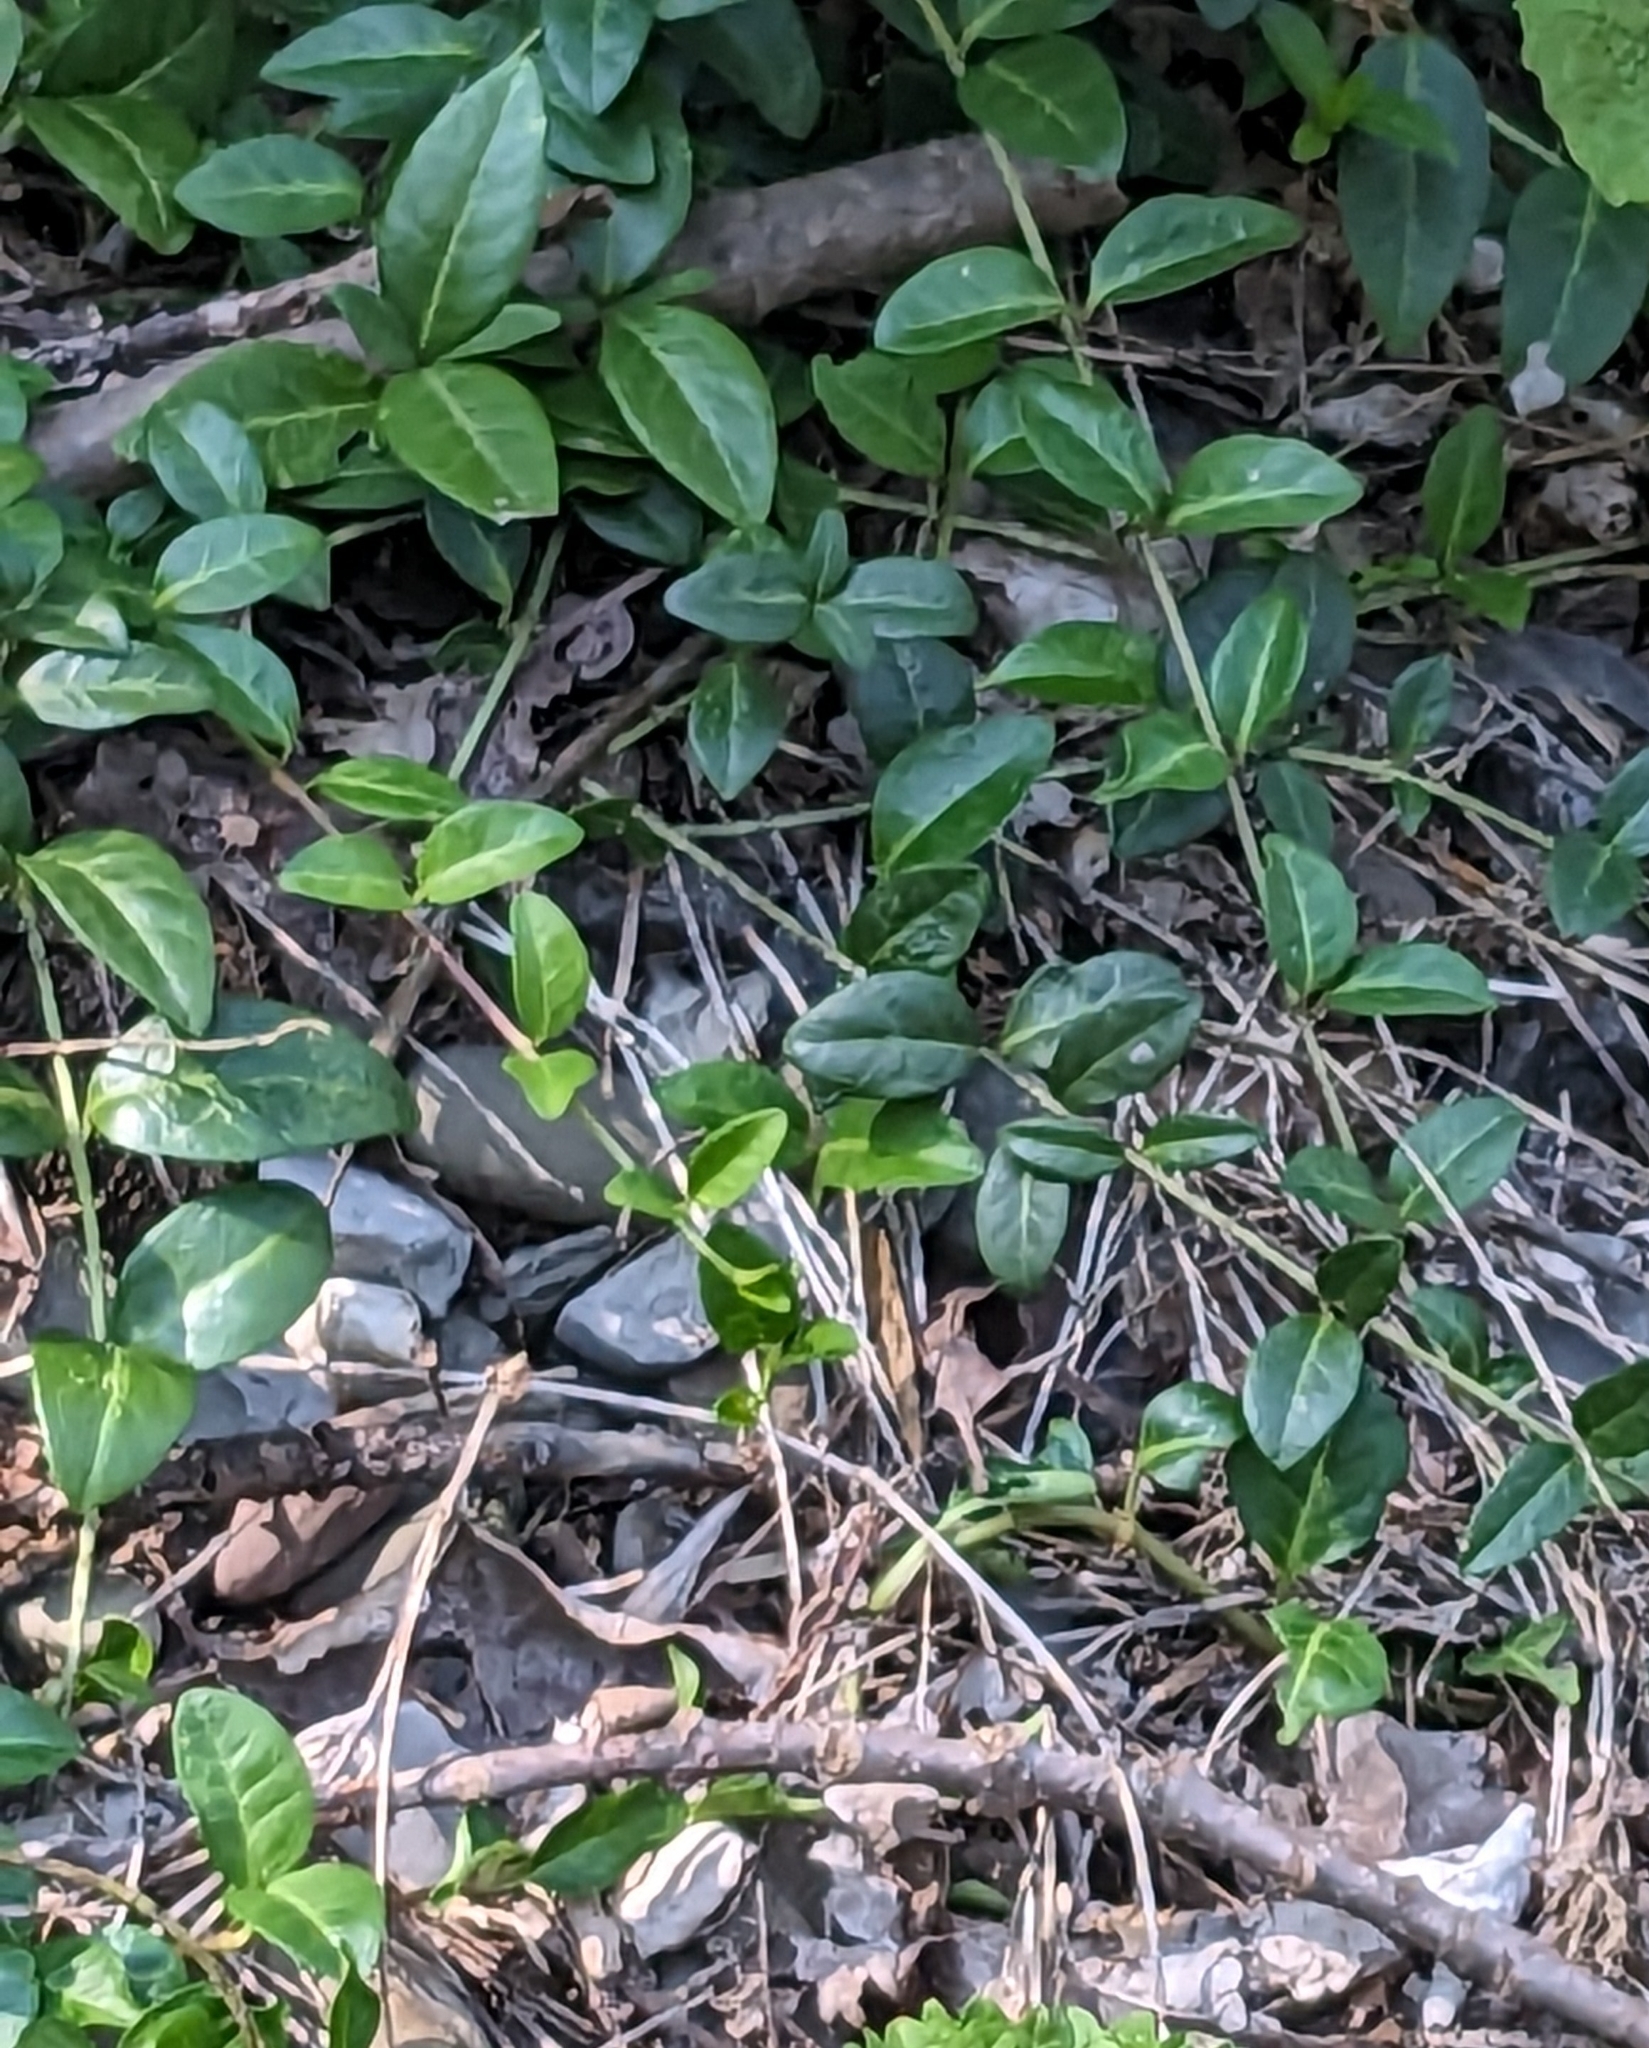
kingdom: Plantae
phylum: Tracheophyta
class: Magnoliopsida
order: Gentianales
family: Apocynaceae
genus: Vinca
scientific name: Vinca minor
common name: Lesser periwinkle
